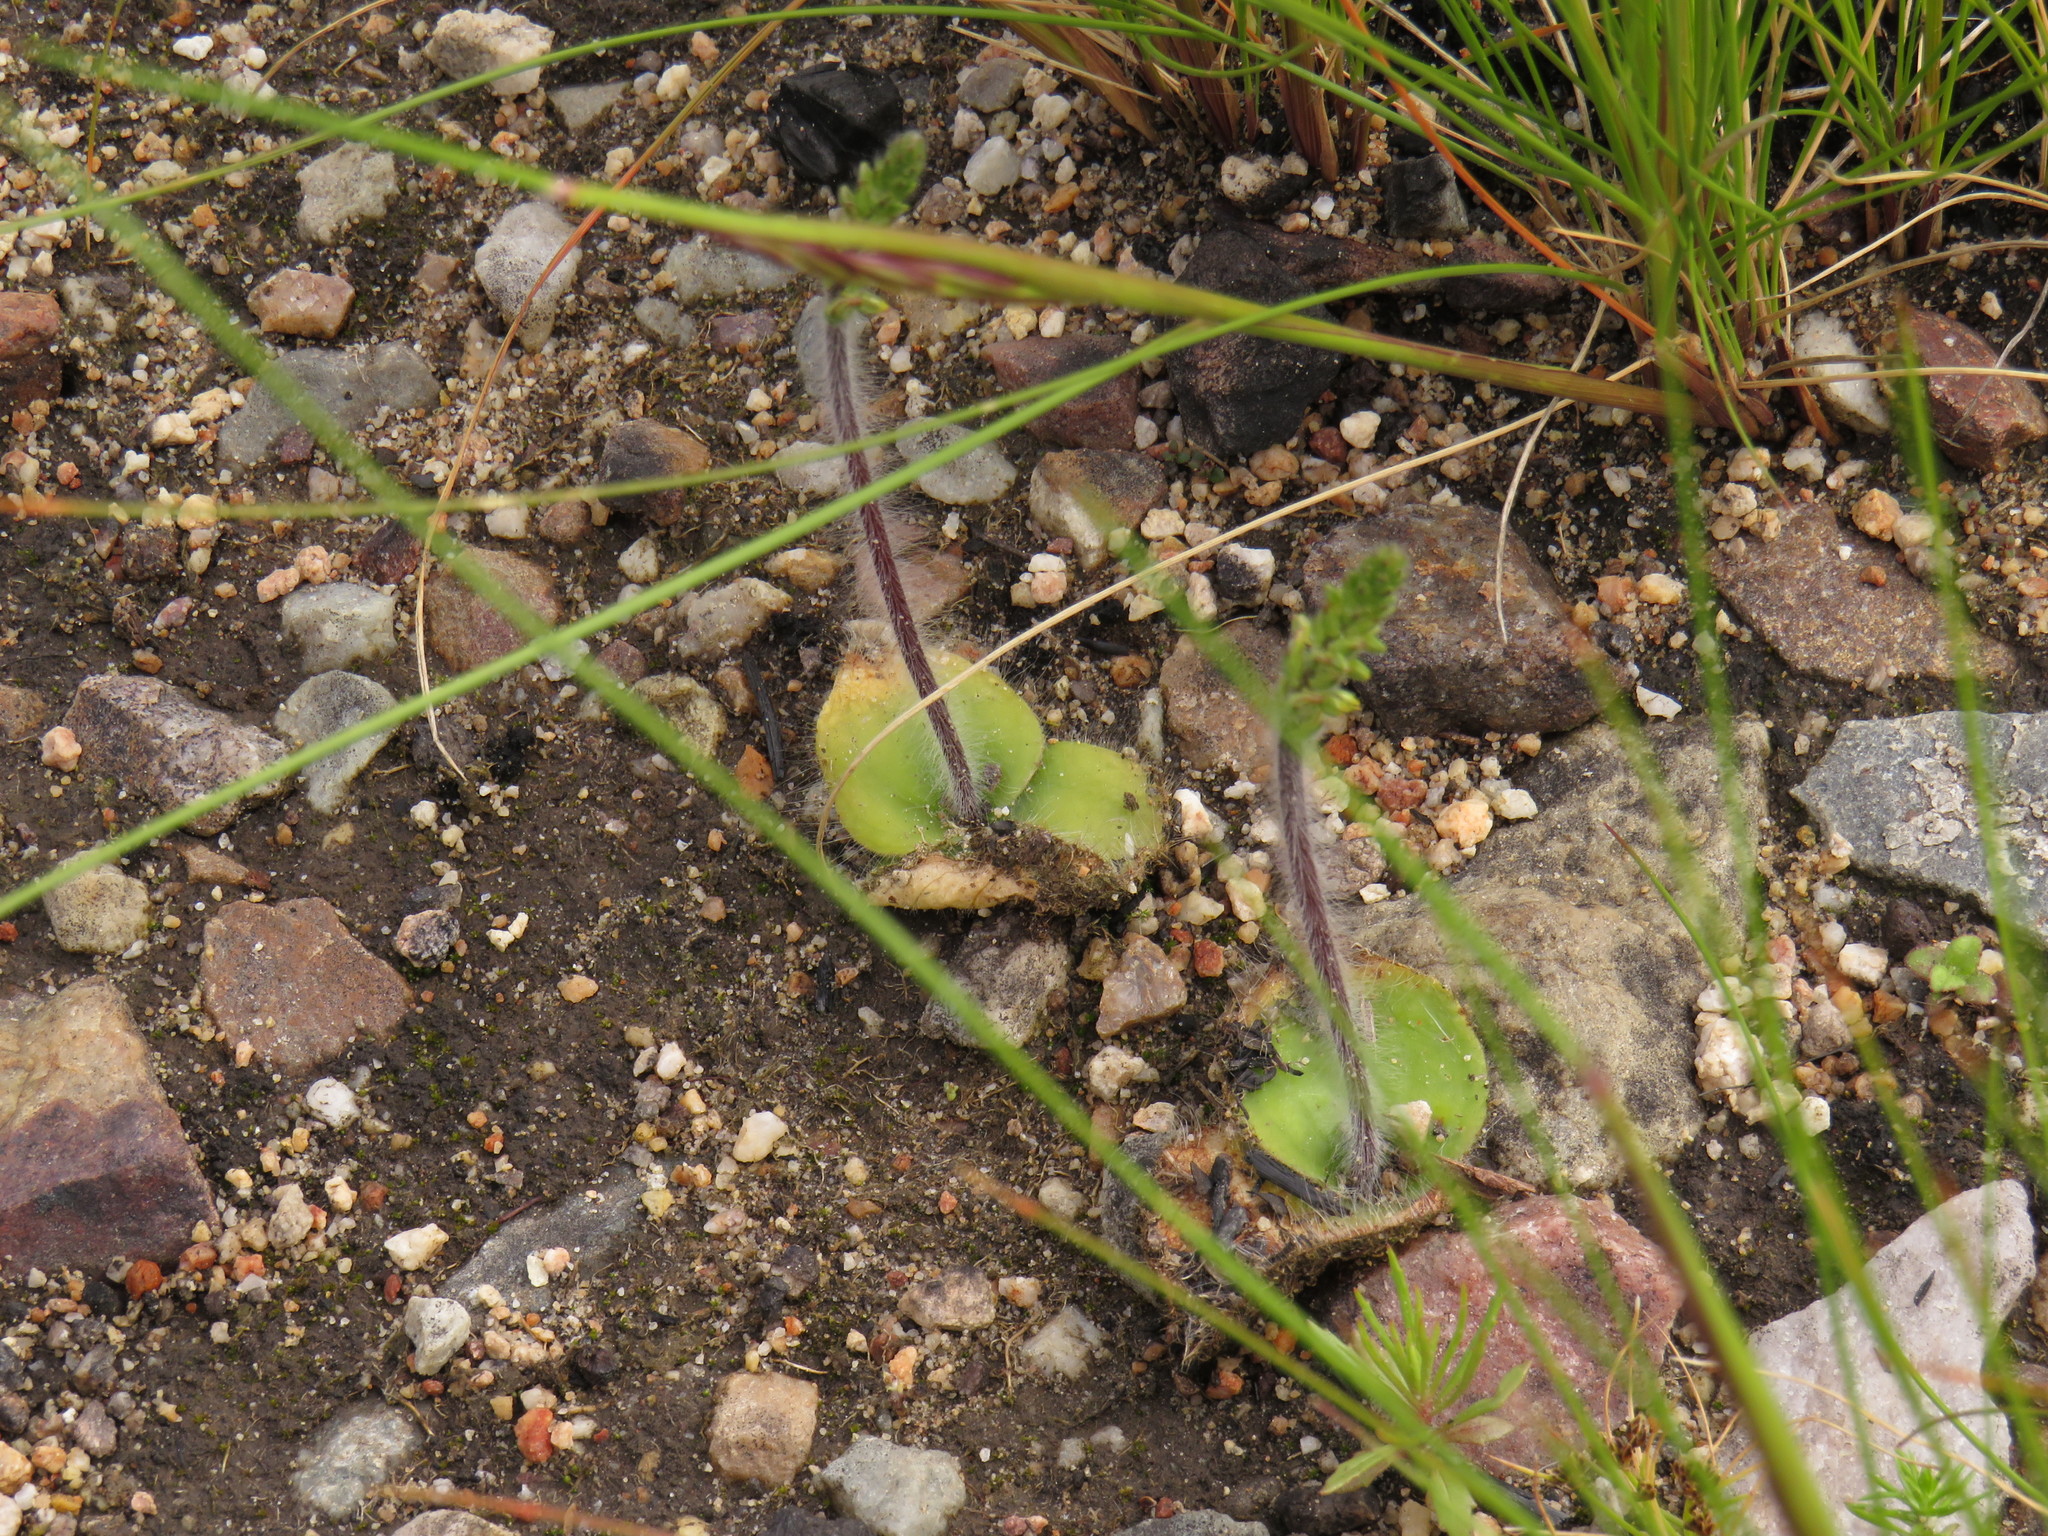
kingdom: Plantae
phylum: Tracheophyta
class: Liliopsida
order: Asparagales
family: Orchidaceae
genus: Holothrix
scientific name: Holothrix villosa
